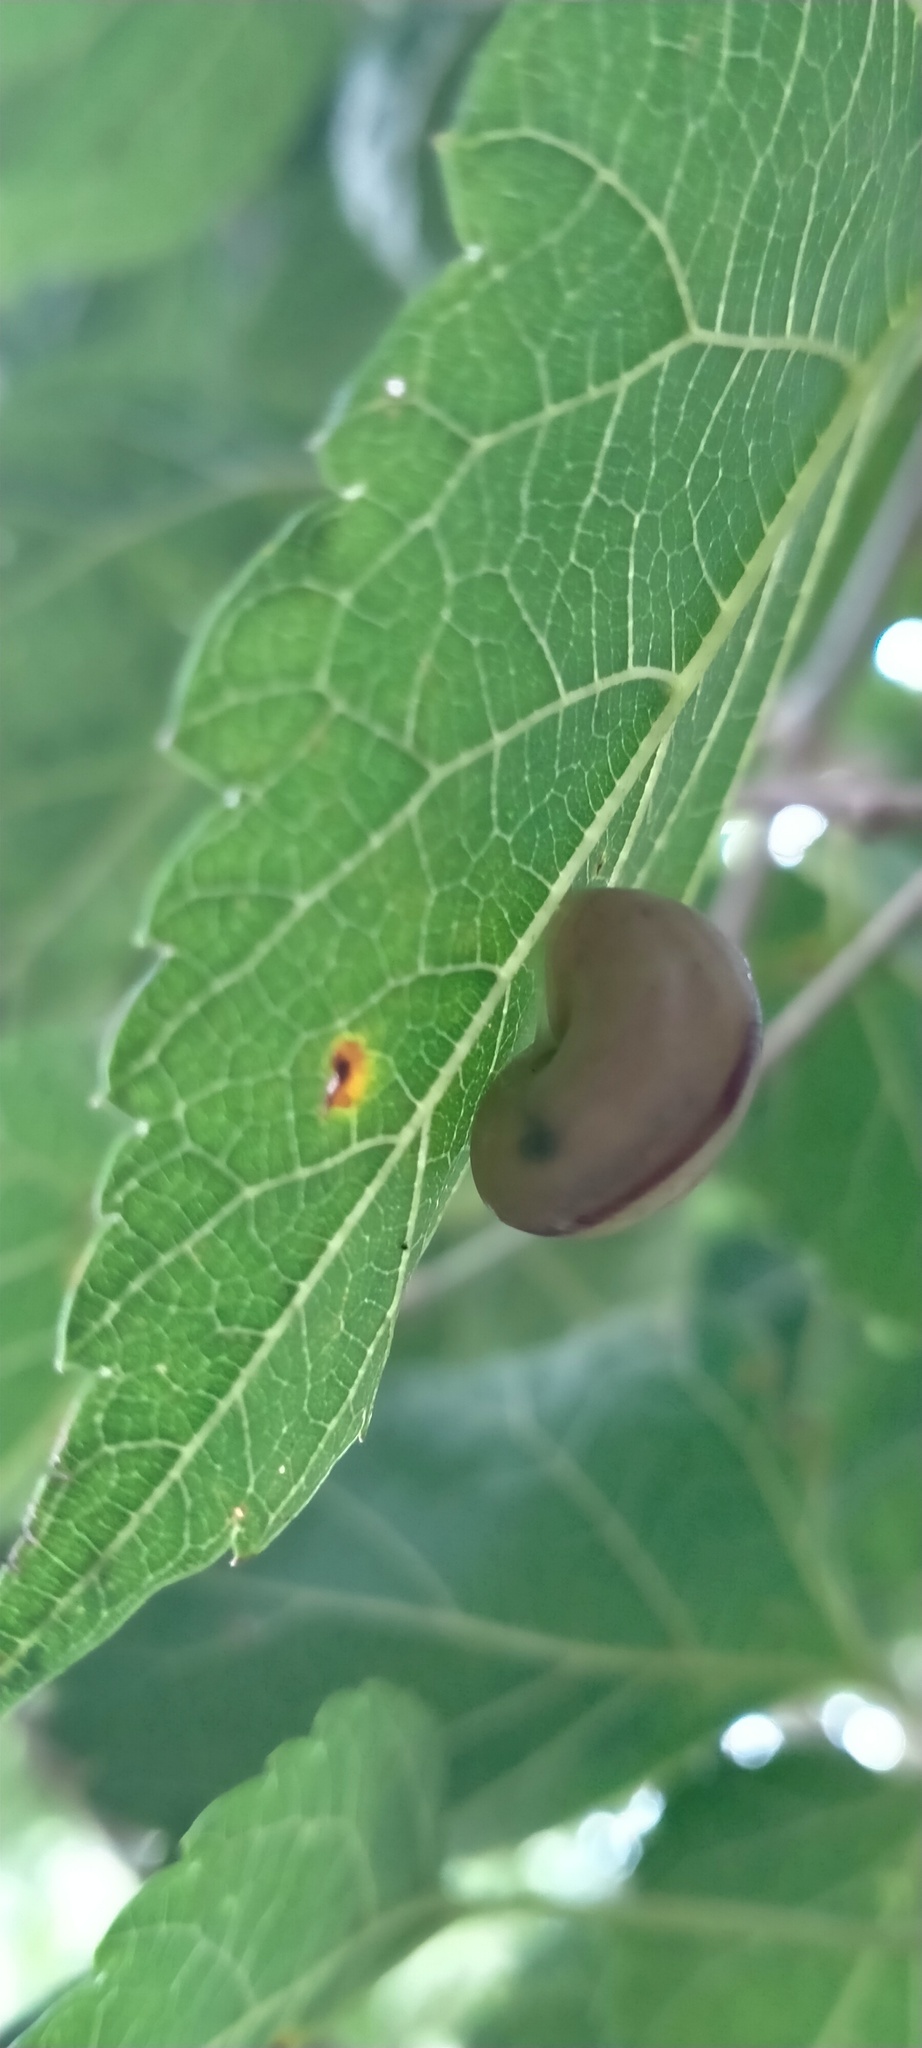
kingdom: Animalia
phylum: Mollusca
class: Gastropoda
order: Stylommatophora
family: Camaenidae
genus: Bradybaena
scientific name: Bradybaena similaris
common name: Asian trampsnail
